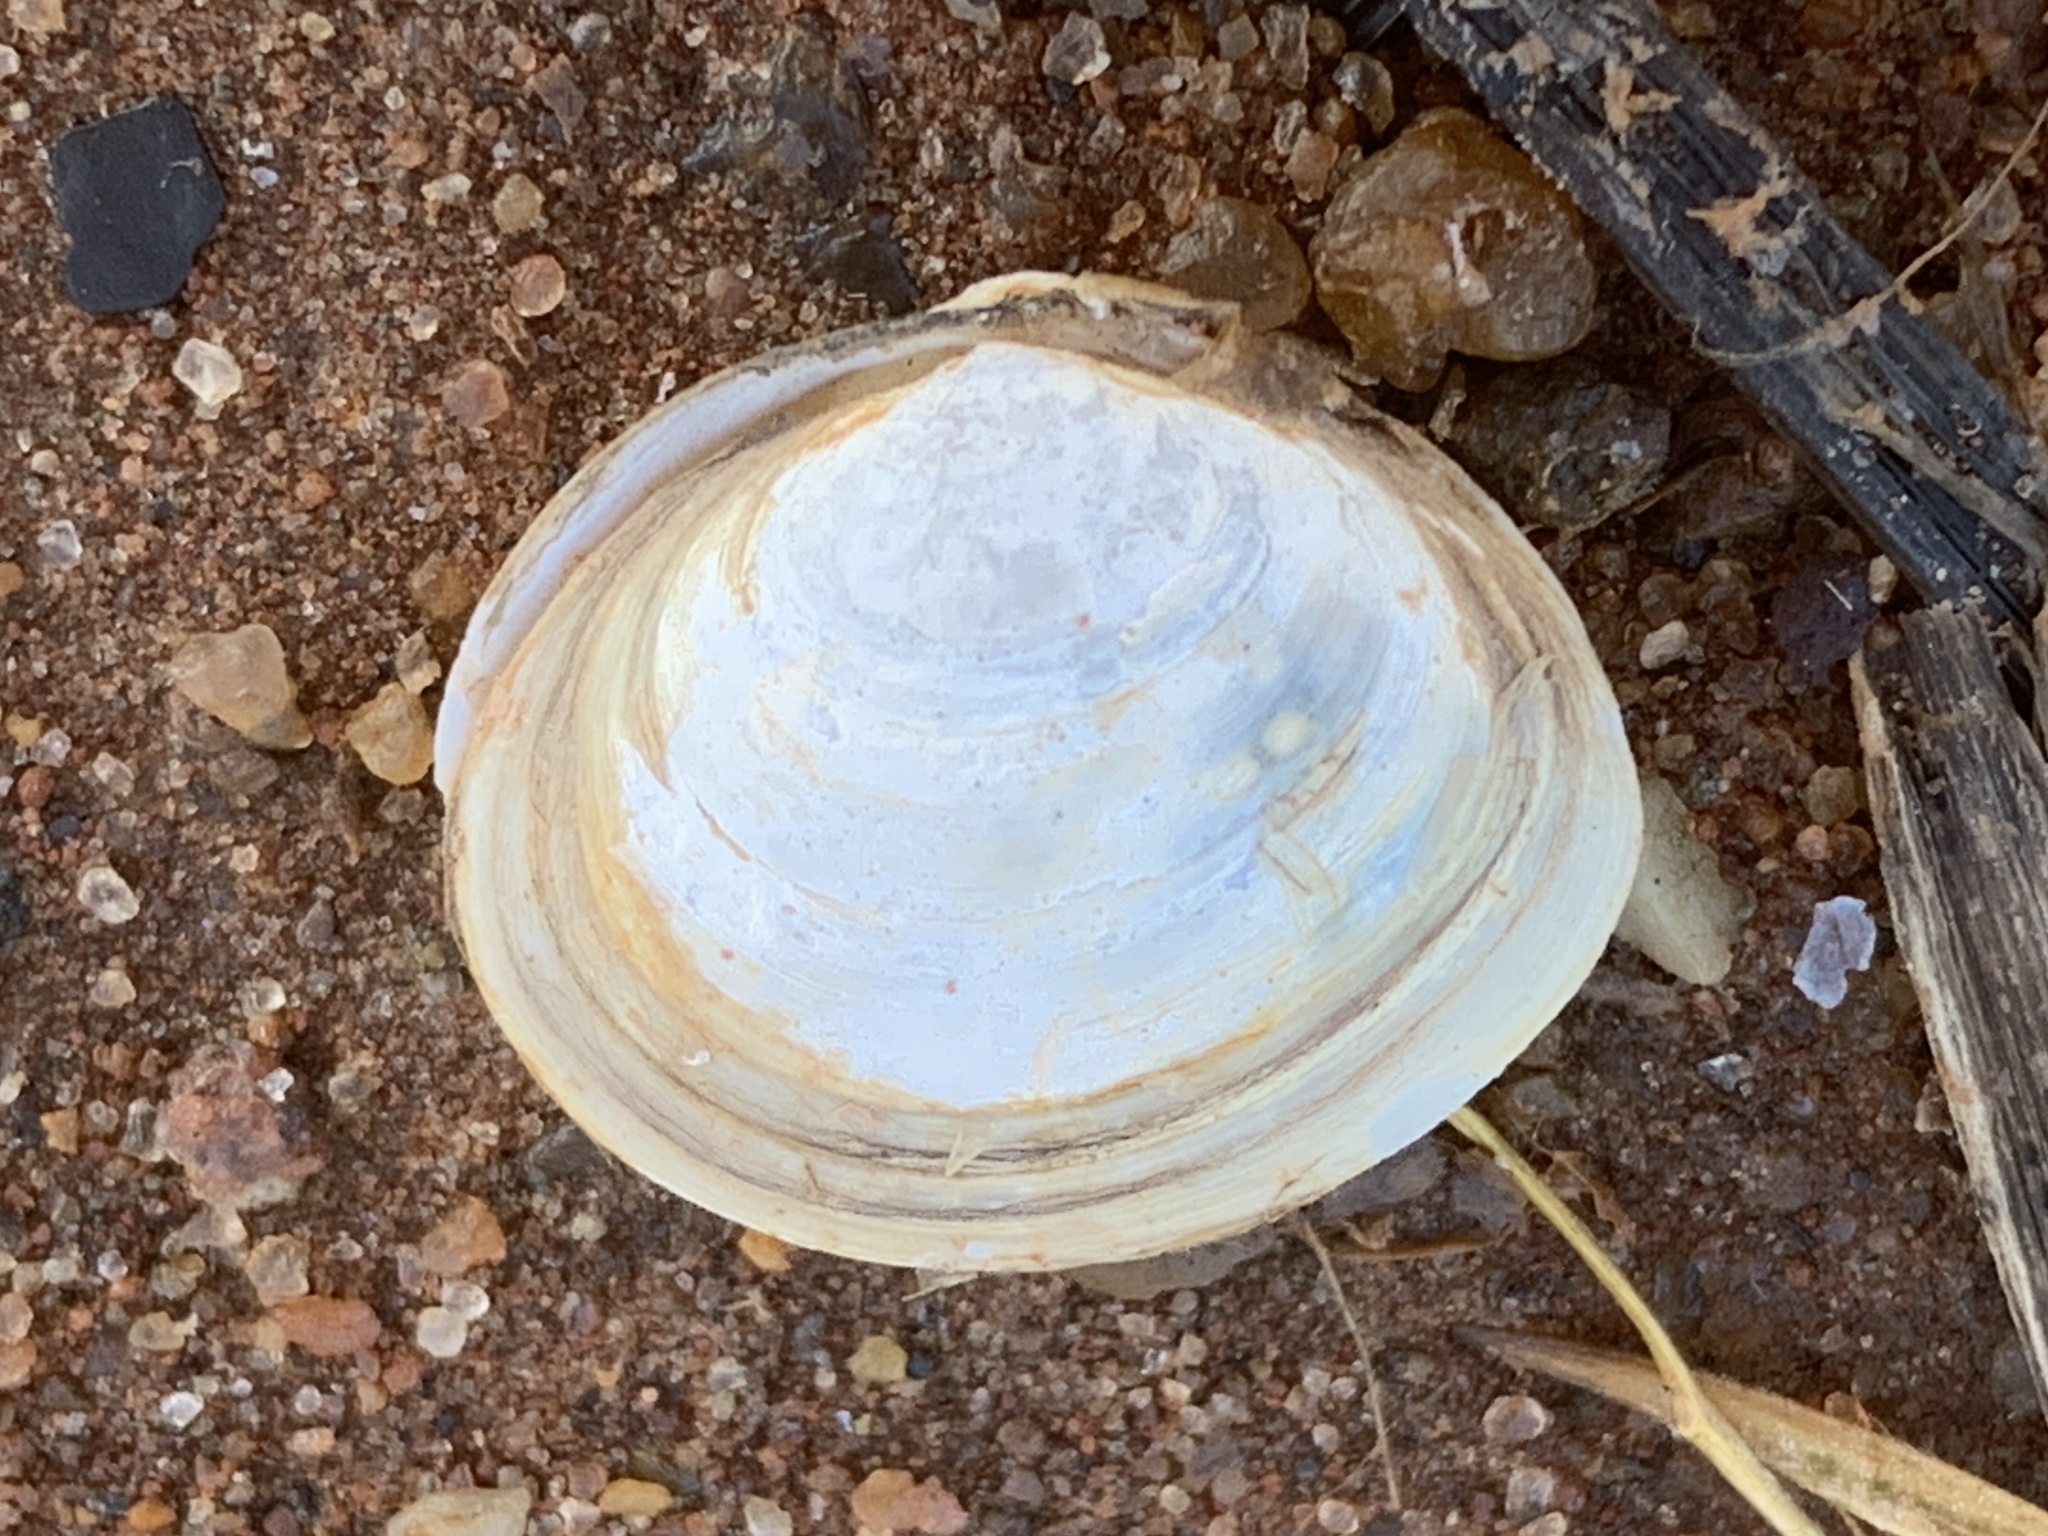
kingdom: Animalia
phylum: Mollusca
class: Bivalvia
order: Cardiida
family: Tellinidae
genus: Macoma
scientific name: Macoma petalum
